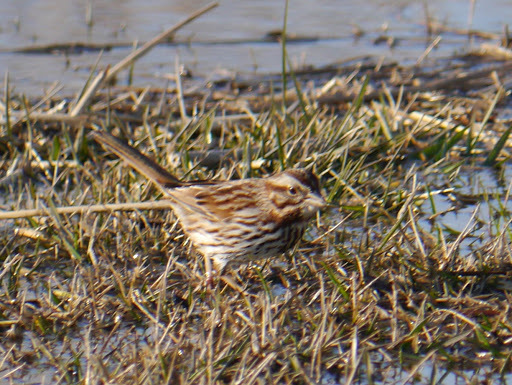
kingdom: Animalia
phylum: Chordata
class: Aves
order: Passeriformes
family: Passerellidae
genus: Melospiza
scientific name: Melospiza melodia
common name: Song sparrow
